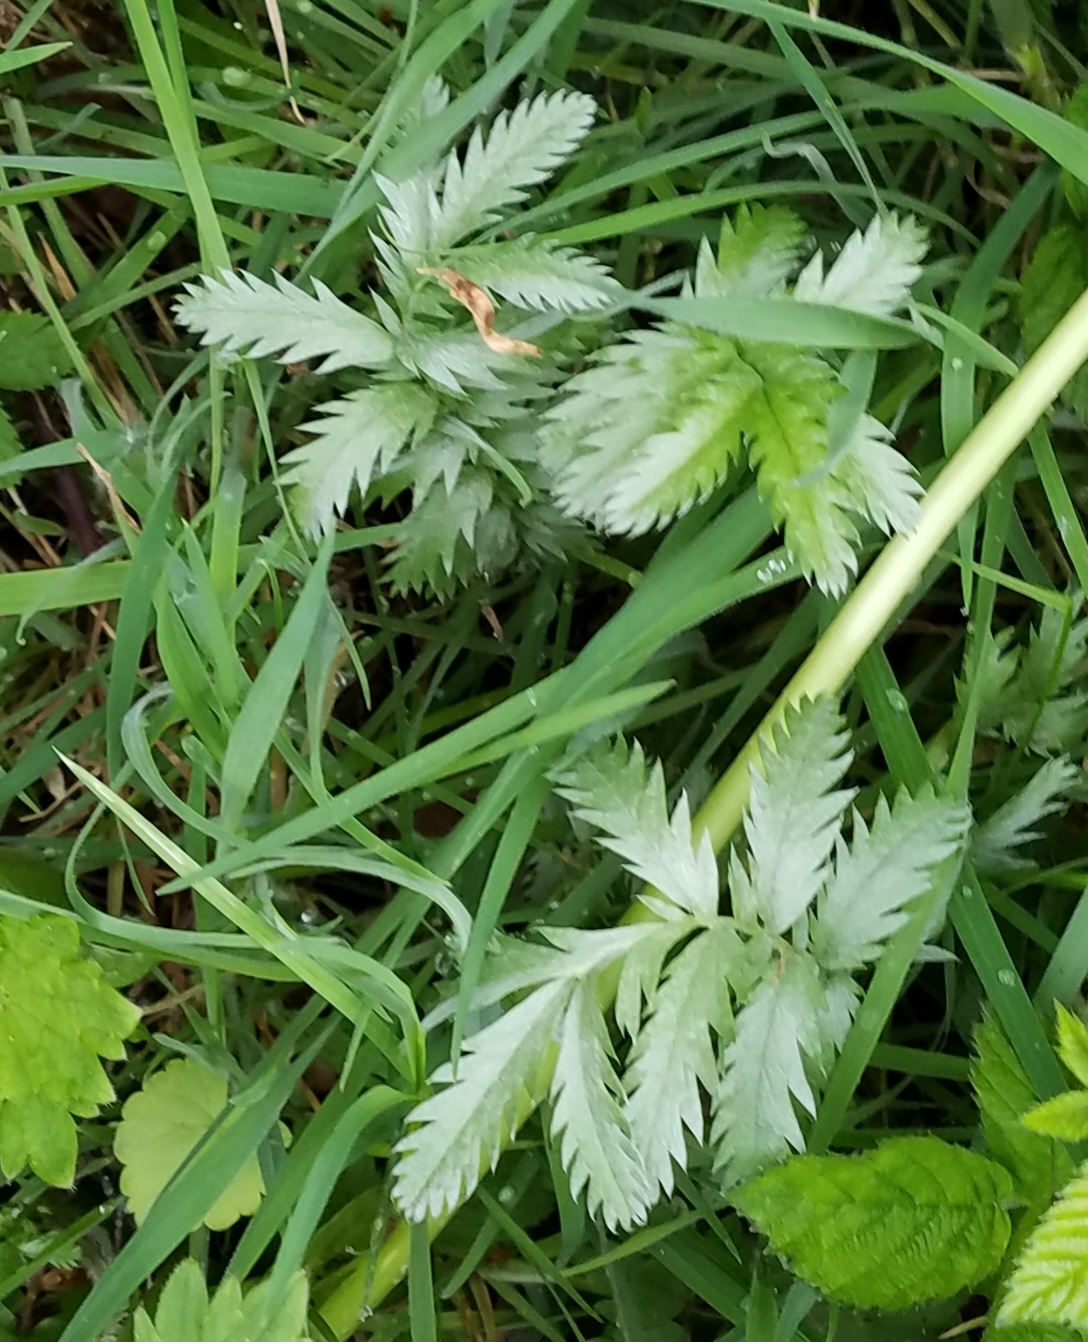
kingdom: Plantae
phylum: Tracheophyta
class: Magnoliopsida
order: Rosales
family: Rosaceae
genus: Argentina
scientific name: Argentina anserina
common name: Common silverweed
